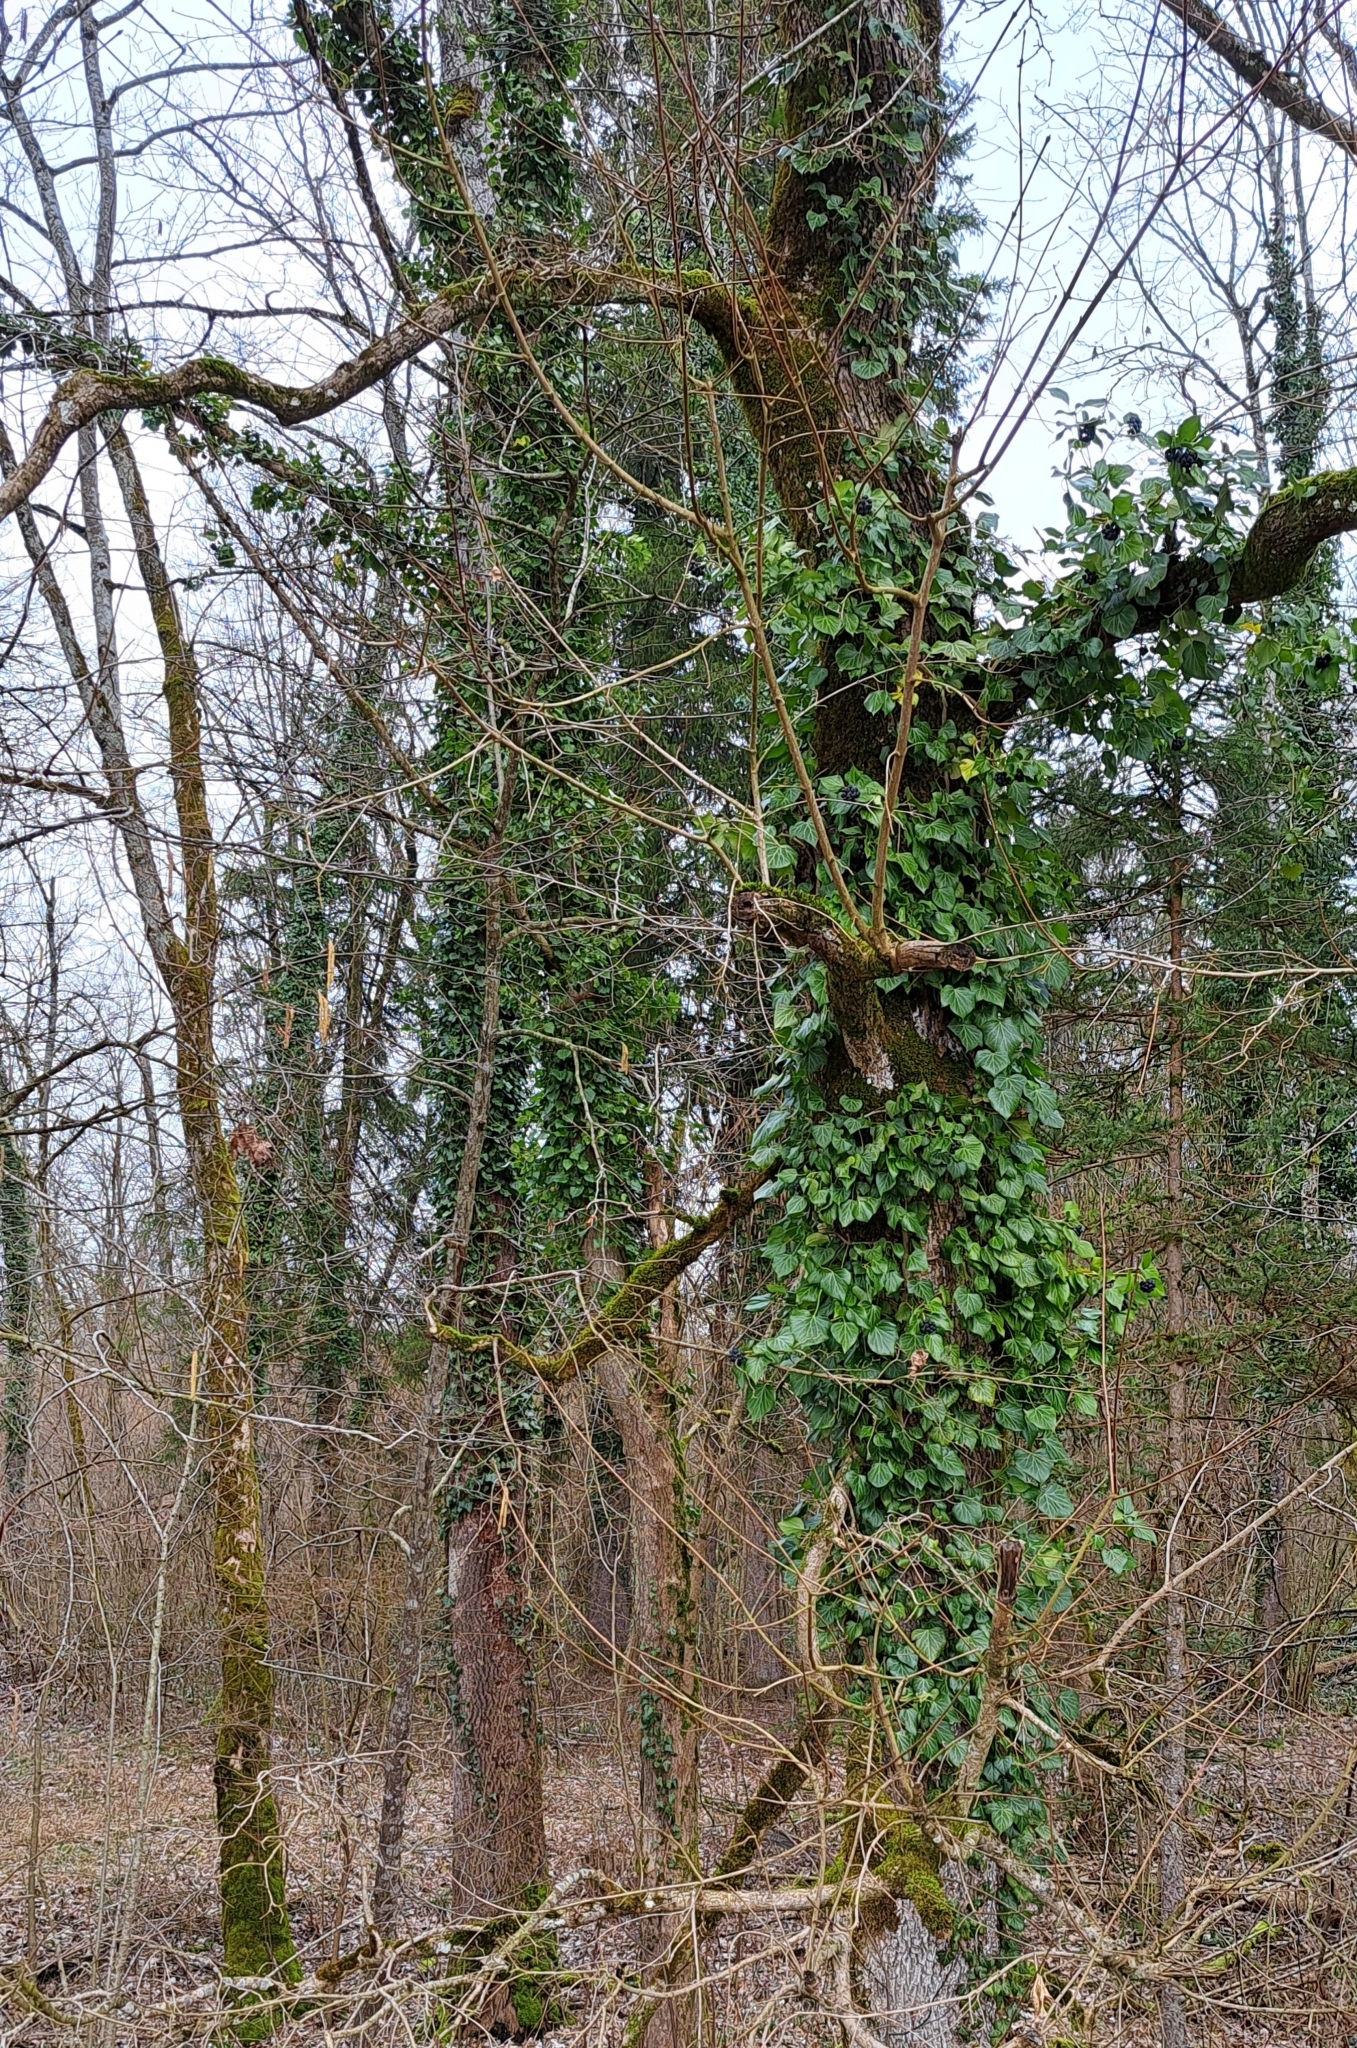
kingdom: Plantae
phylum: Tracheophyta
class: Magnoliopsida
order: Apiales
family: Araliaceae
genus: Hedera
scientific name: Hedera helix
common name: Ivy
